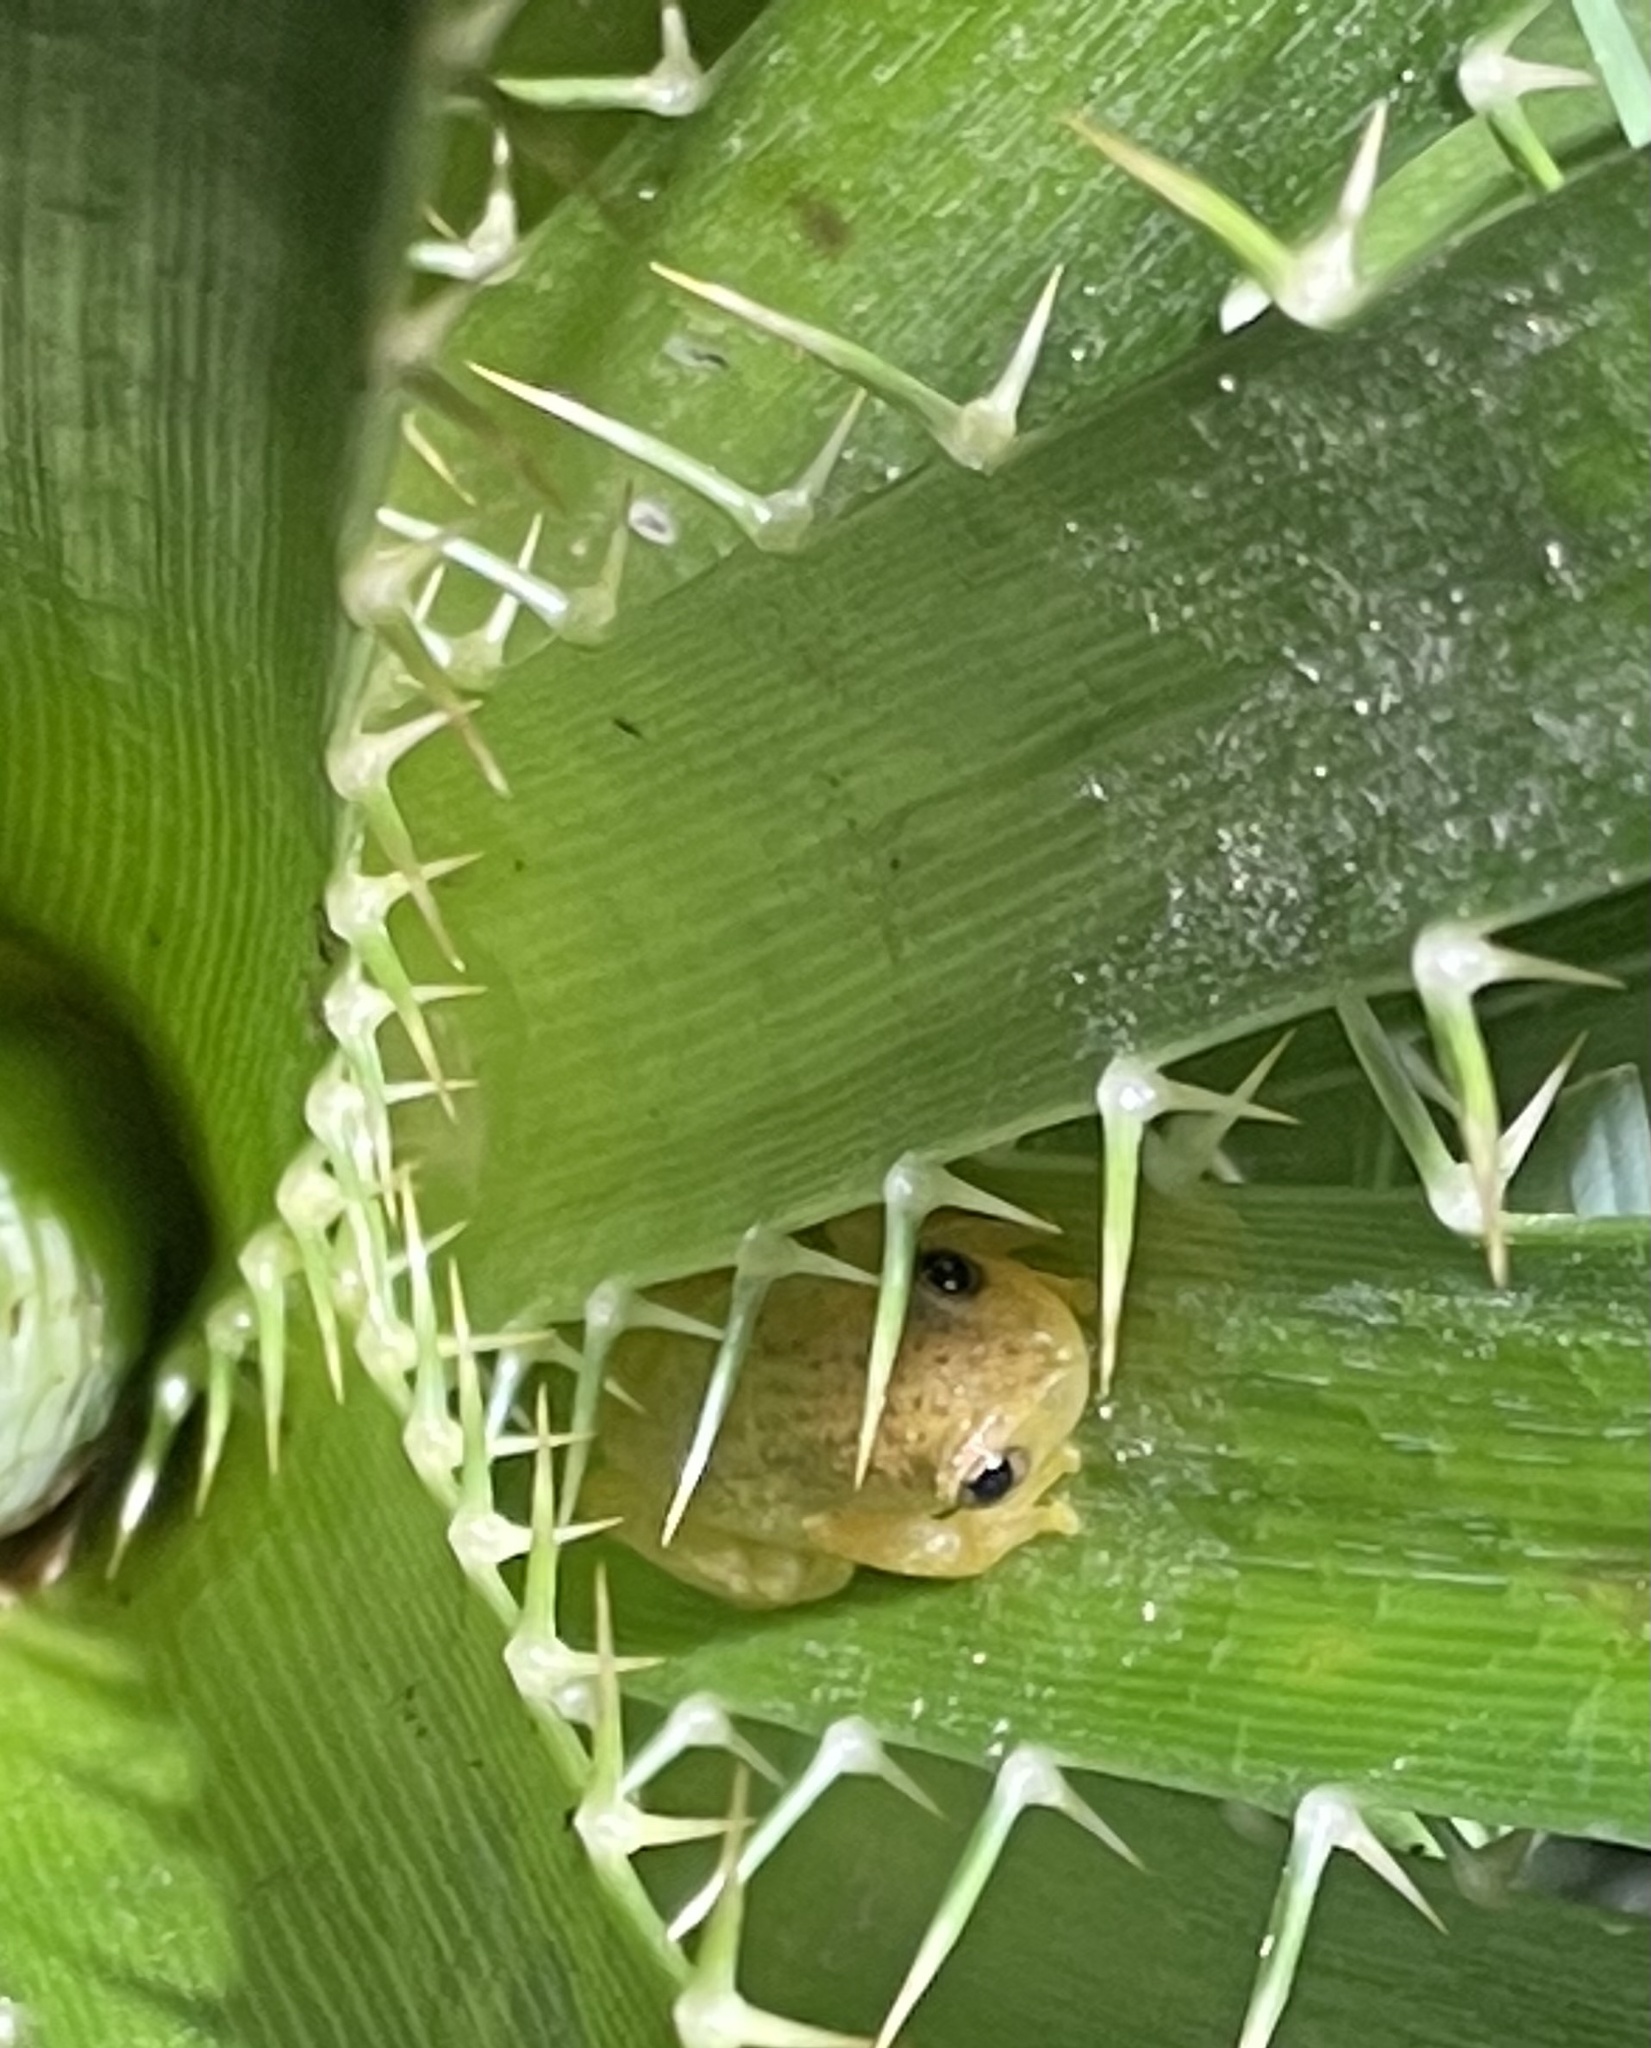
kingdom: Animalia
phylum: Chordata
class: Amphibia
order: Anura
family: Hylidae
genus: Dendropsophus
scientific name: Dendropsophus sanborni
